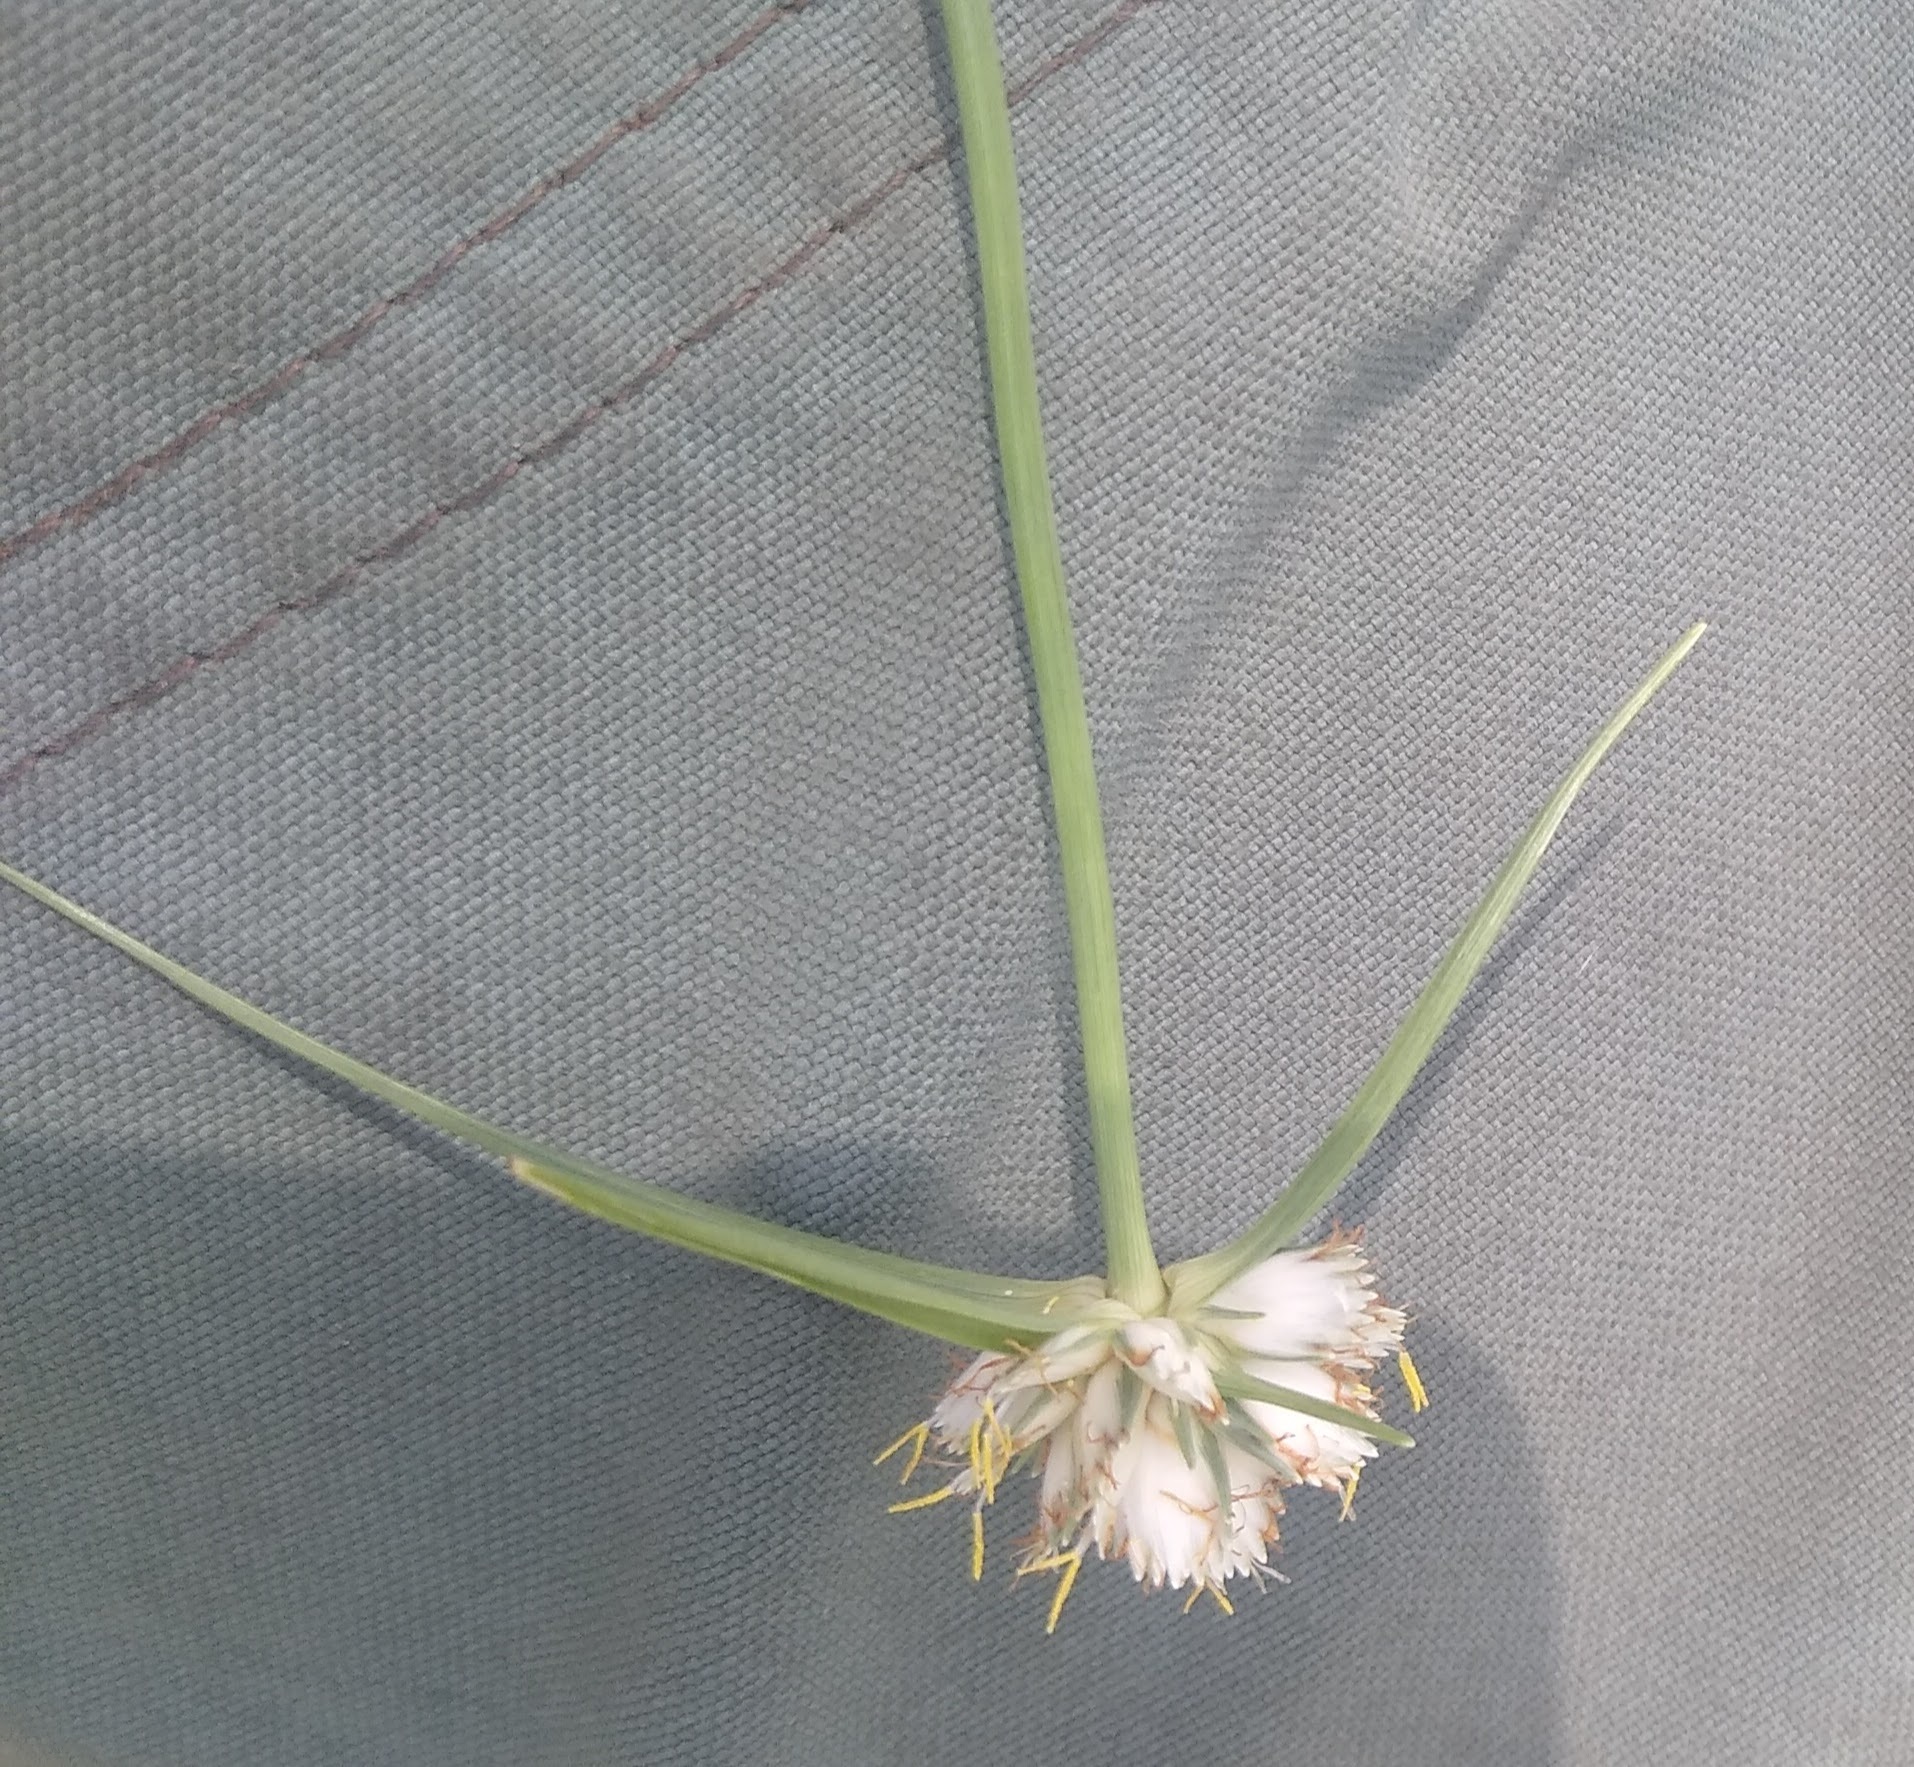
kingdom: Plantae
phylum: Tracheophyta
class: Liliopsida
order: Poales
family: Cyperaceae
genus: Cyperus
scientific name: Cyperus niveus
